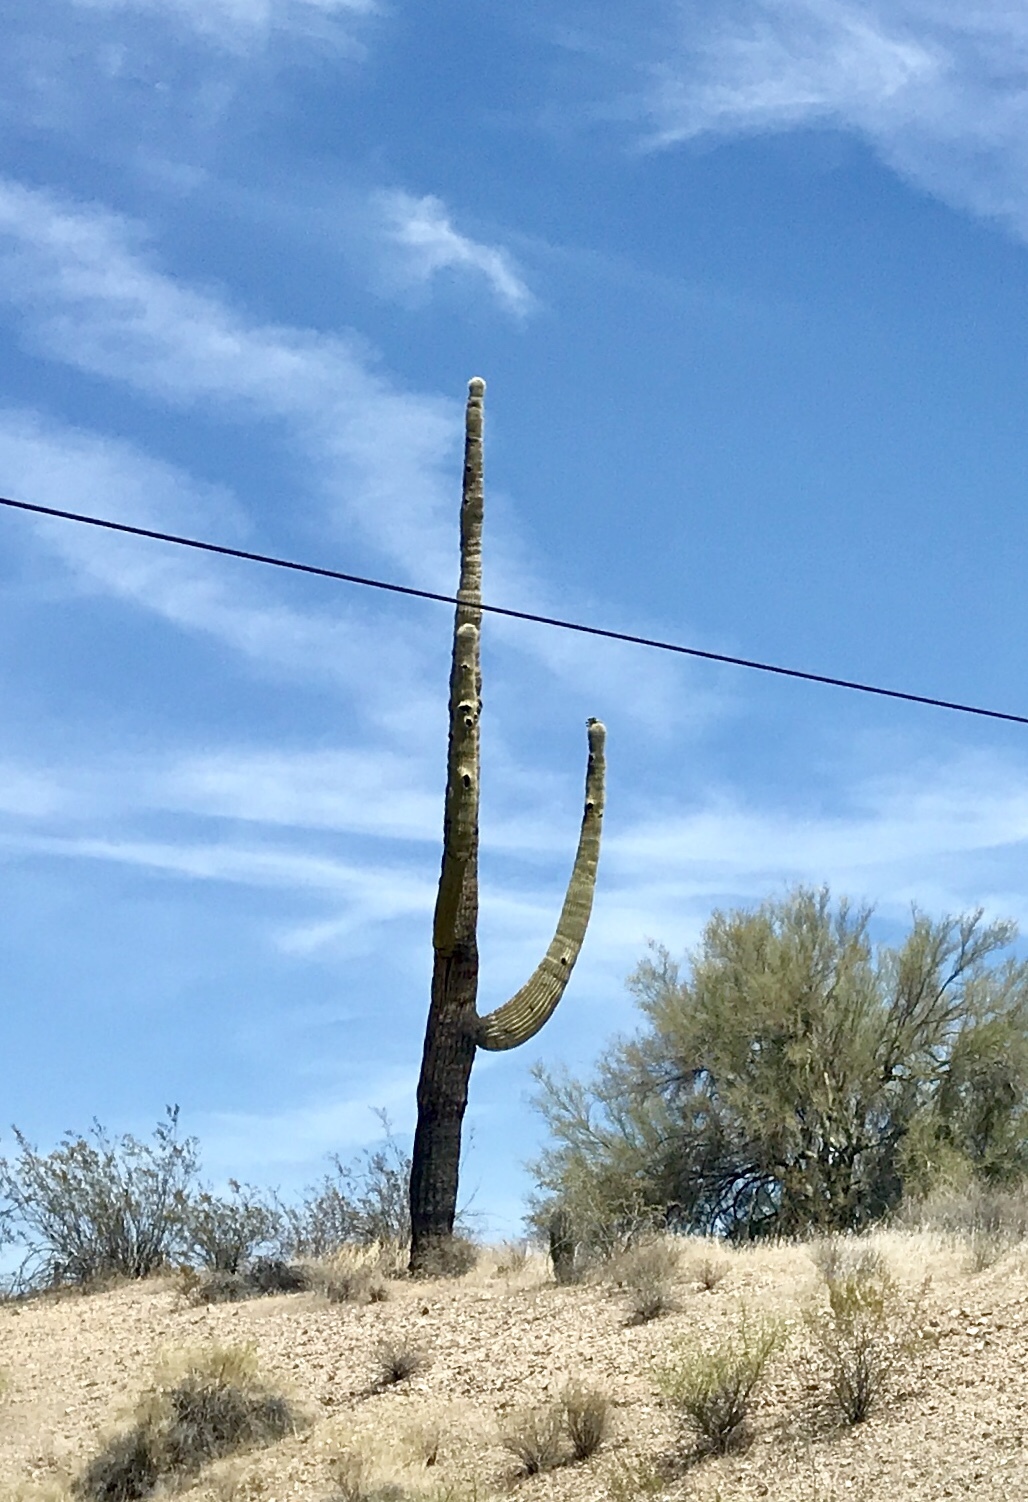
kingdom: Plantae
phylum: Tracheophyta
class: Magnoliopsida
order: Caryophyllales
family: Cactaceae
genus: Carnegiea
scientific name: Carnegiea gigantea
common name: Saguaro
